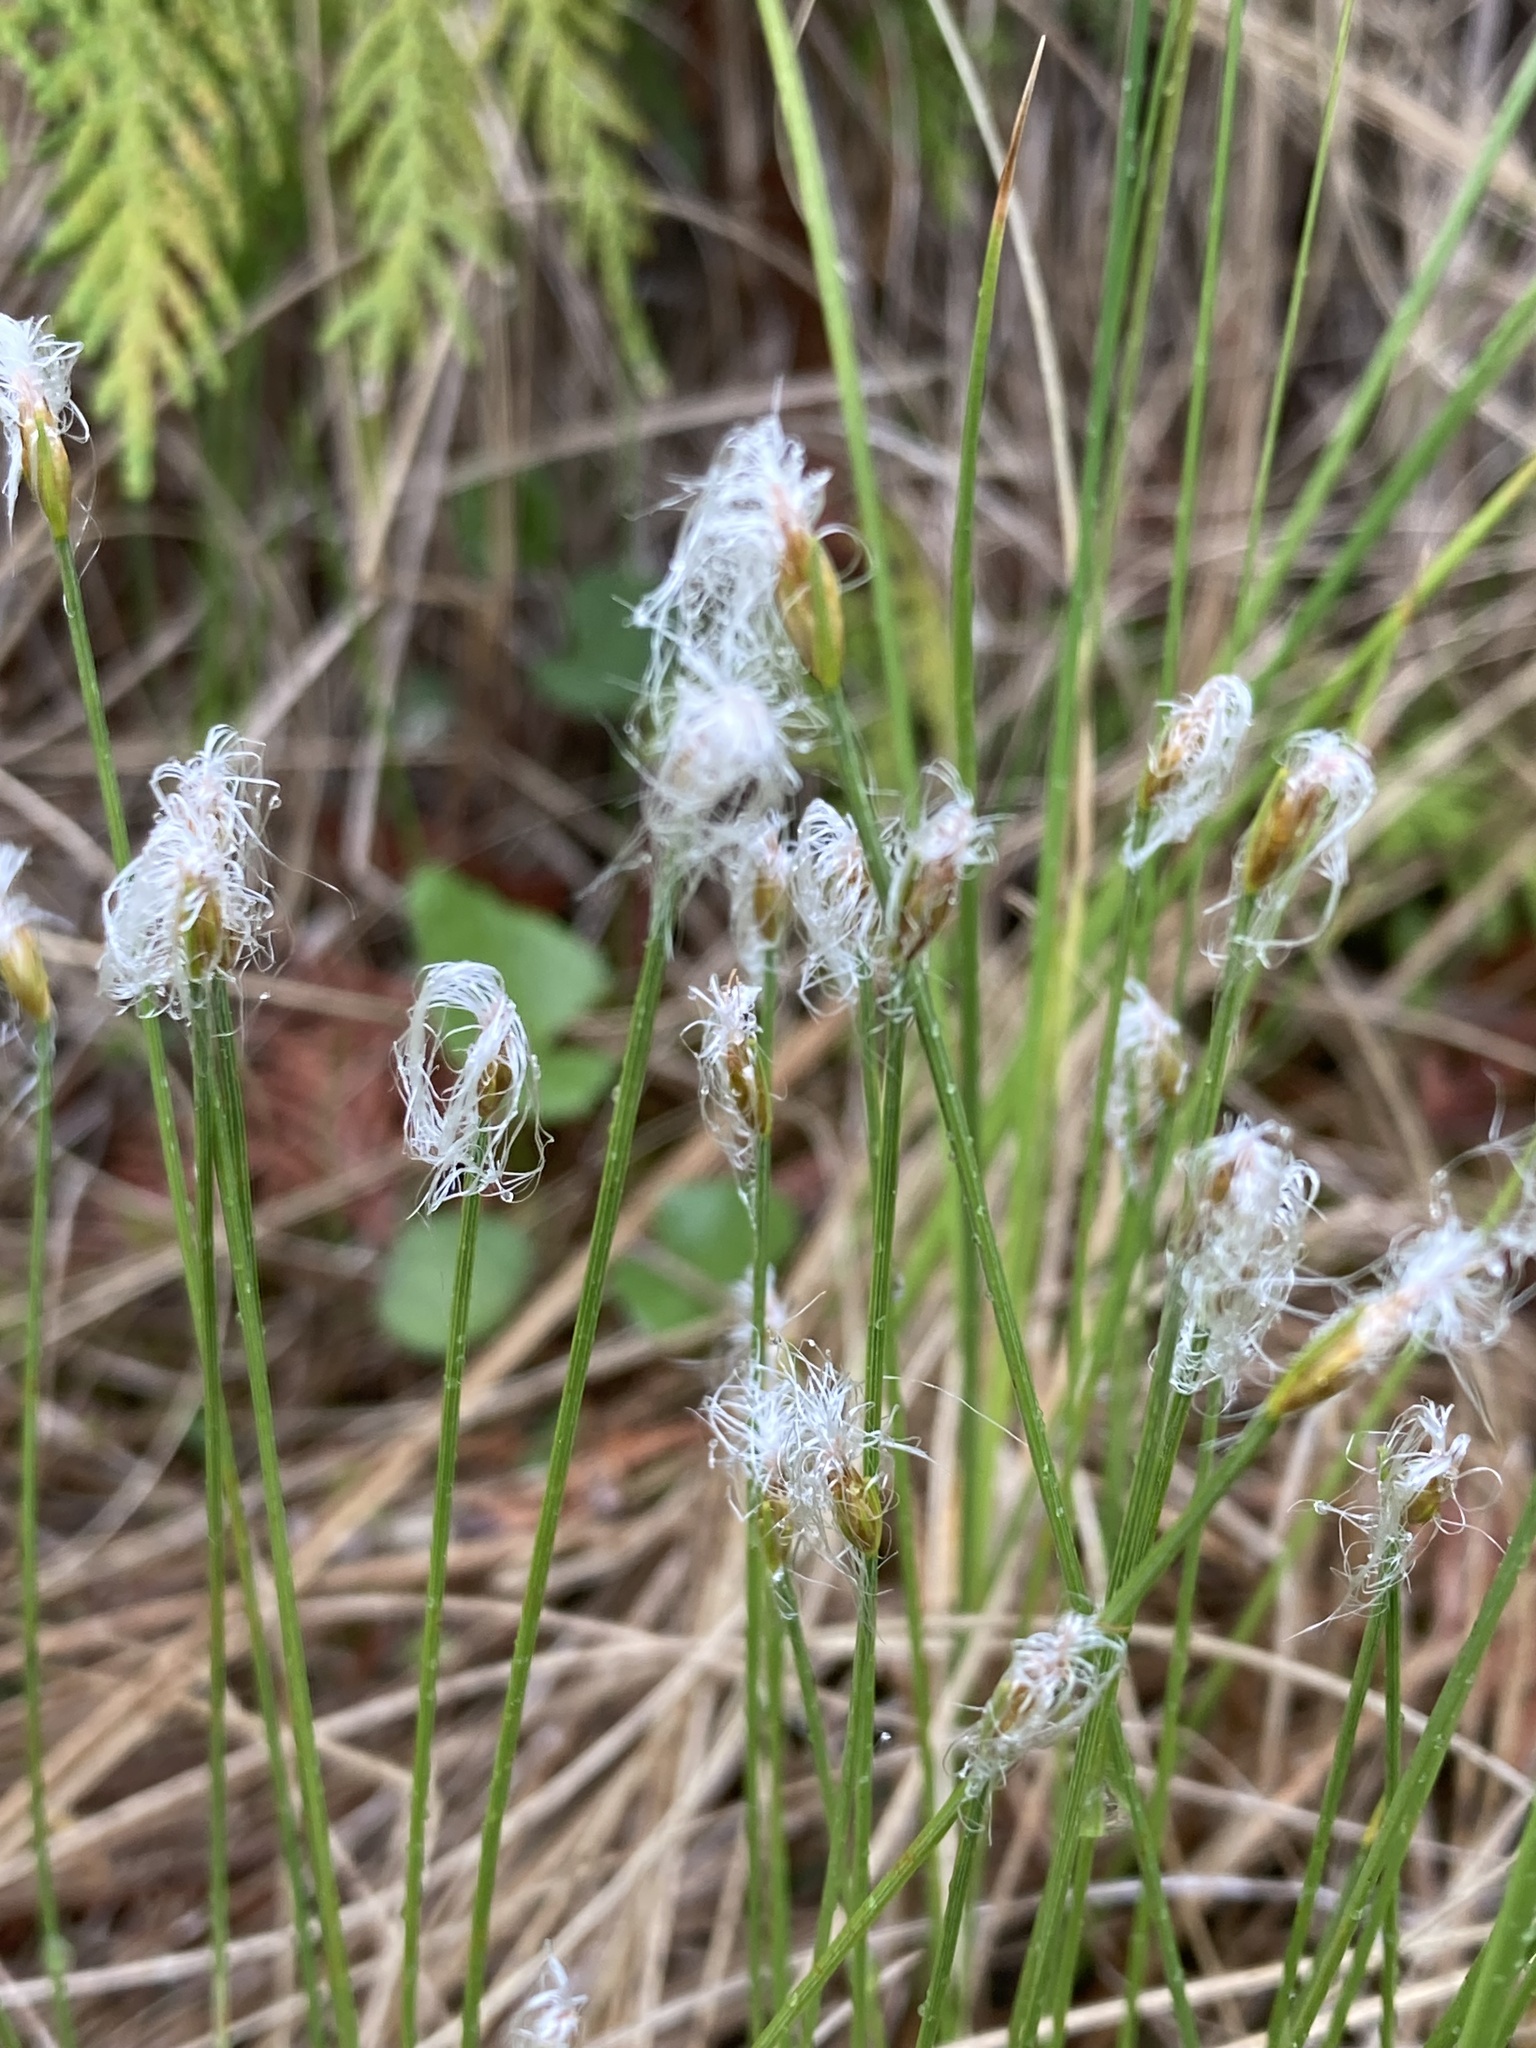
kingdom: Plantae
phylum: Tracheophyta
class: Liliopsida
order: Poales
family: Cyperaceae
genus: Trichophorum
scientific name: Trichophorum alpinum
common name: Alpine bulrush
